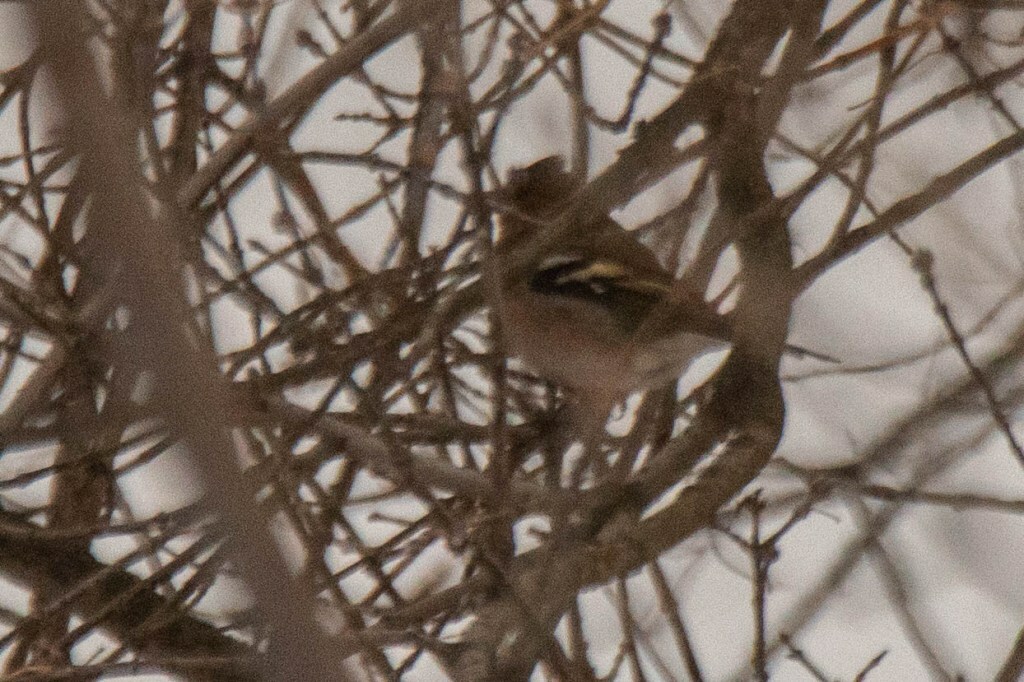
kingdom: Animalia
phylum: Chordata
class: Aves
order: Passeriformes
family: Fringillidae
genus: Fringilla
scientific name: Fringilla coelebs
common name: Common chaffinch
